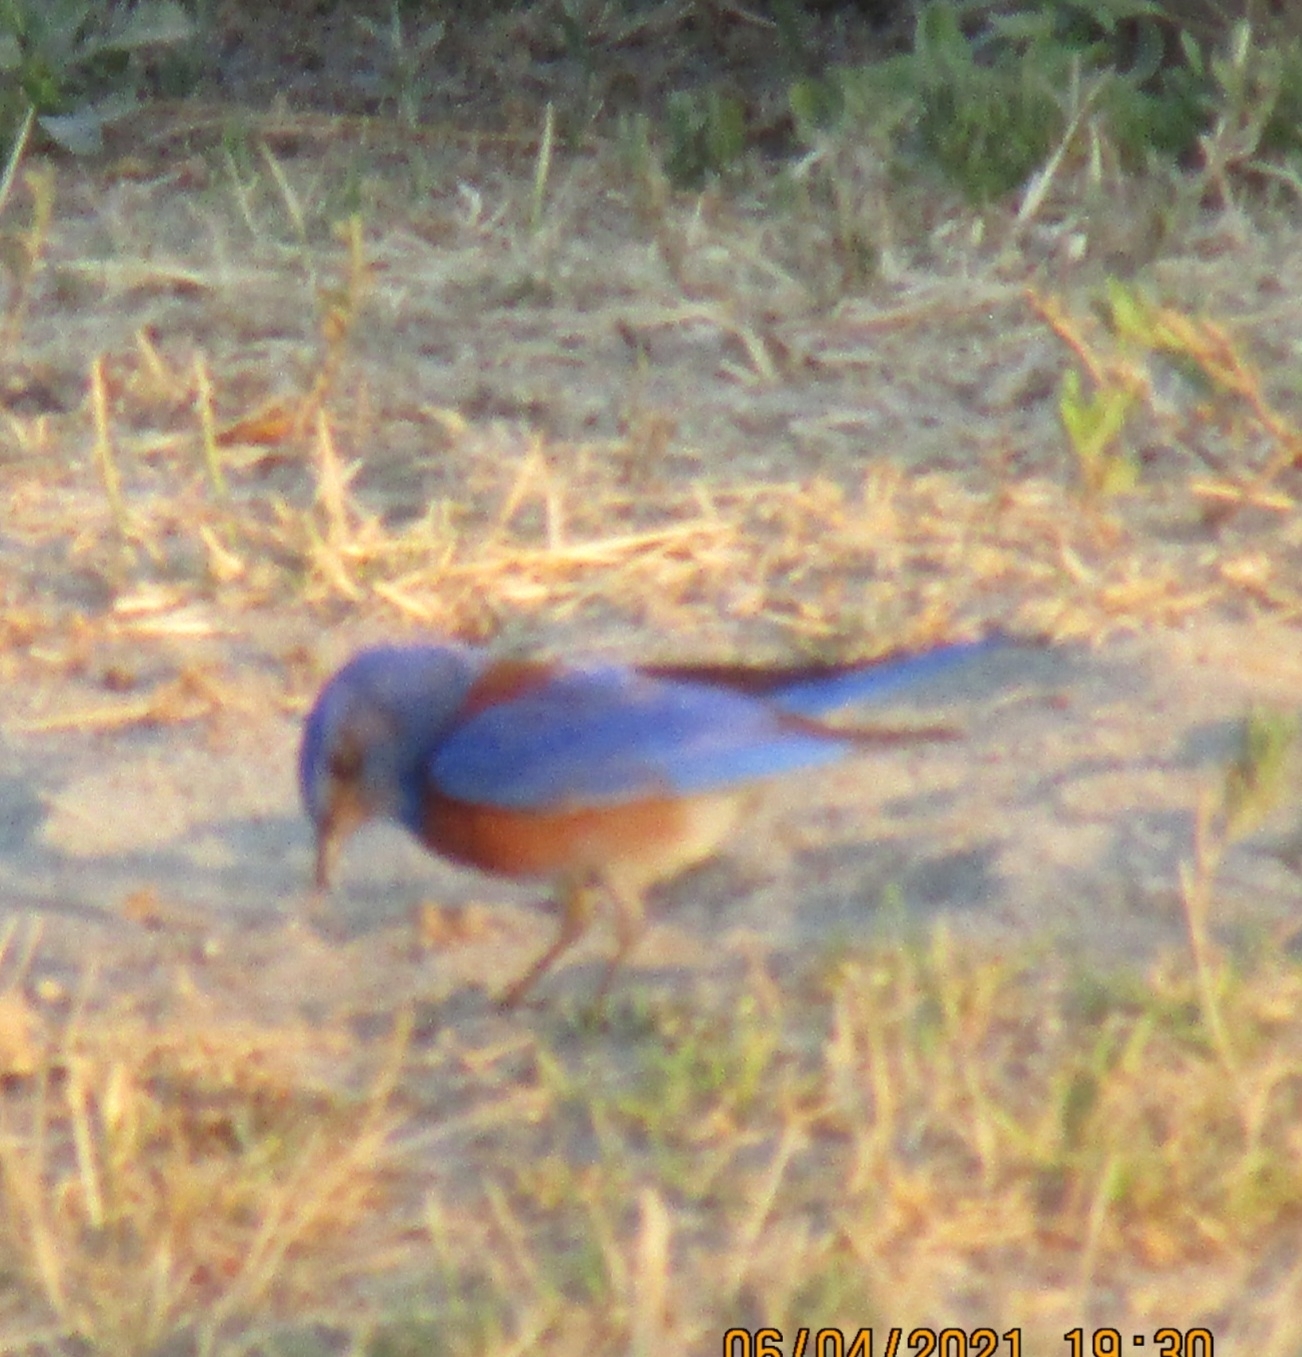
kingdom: Animalia
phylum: Chordata
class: Aves
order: Passeriformes
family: Turdidae
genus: Sialia
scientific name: Sialia mexicana
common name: Western bluebird
